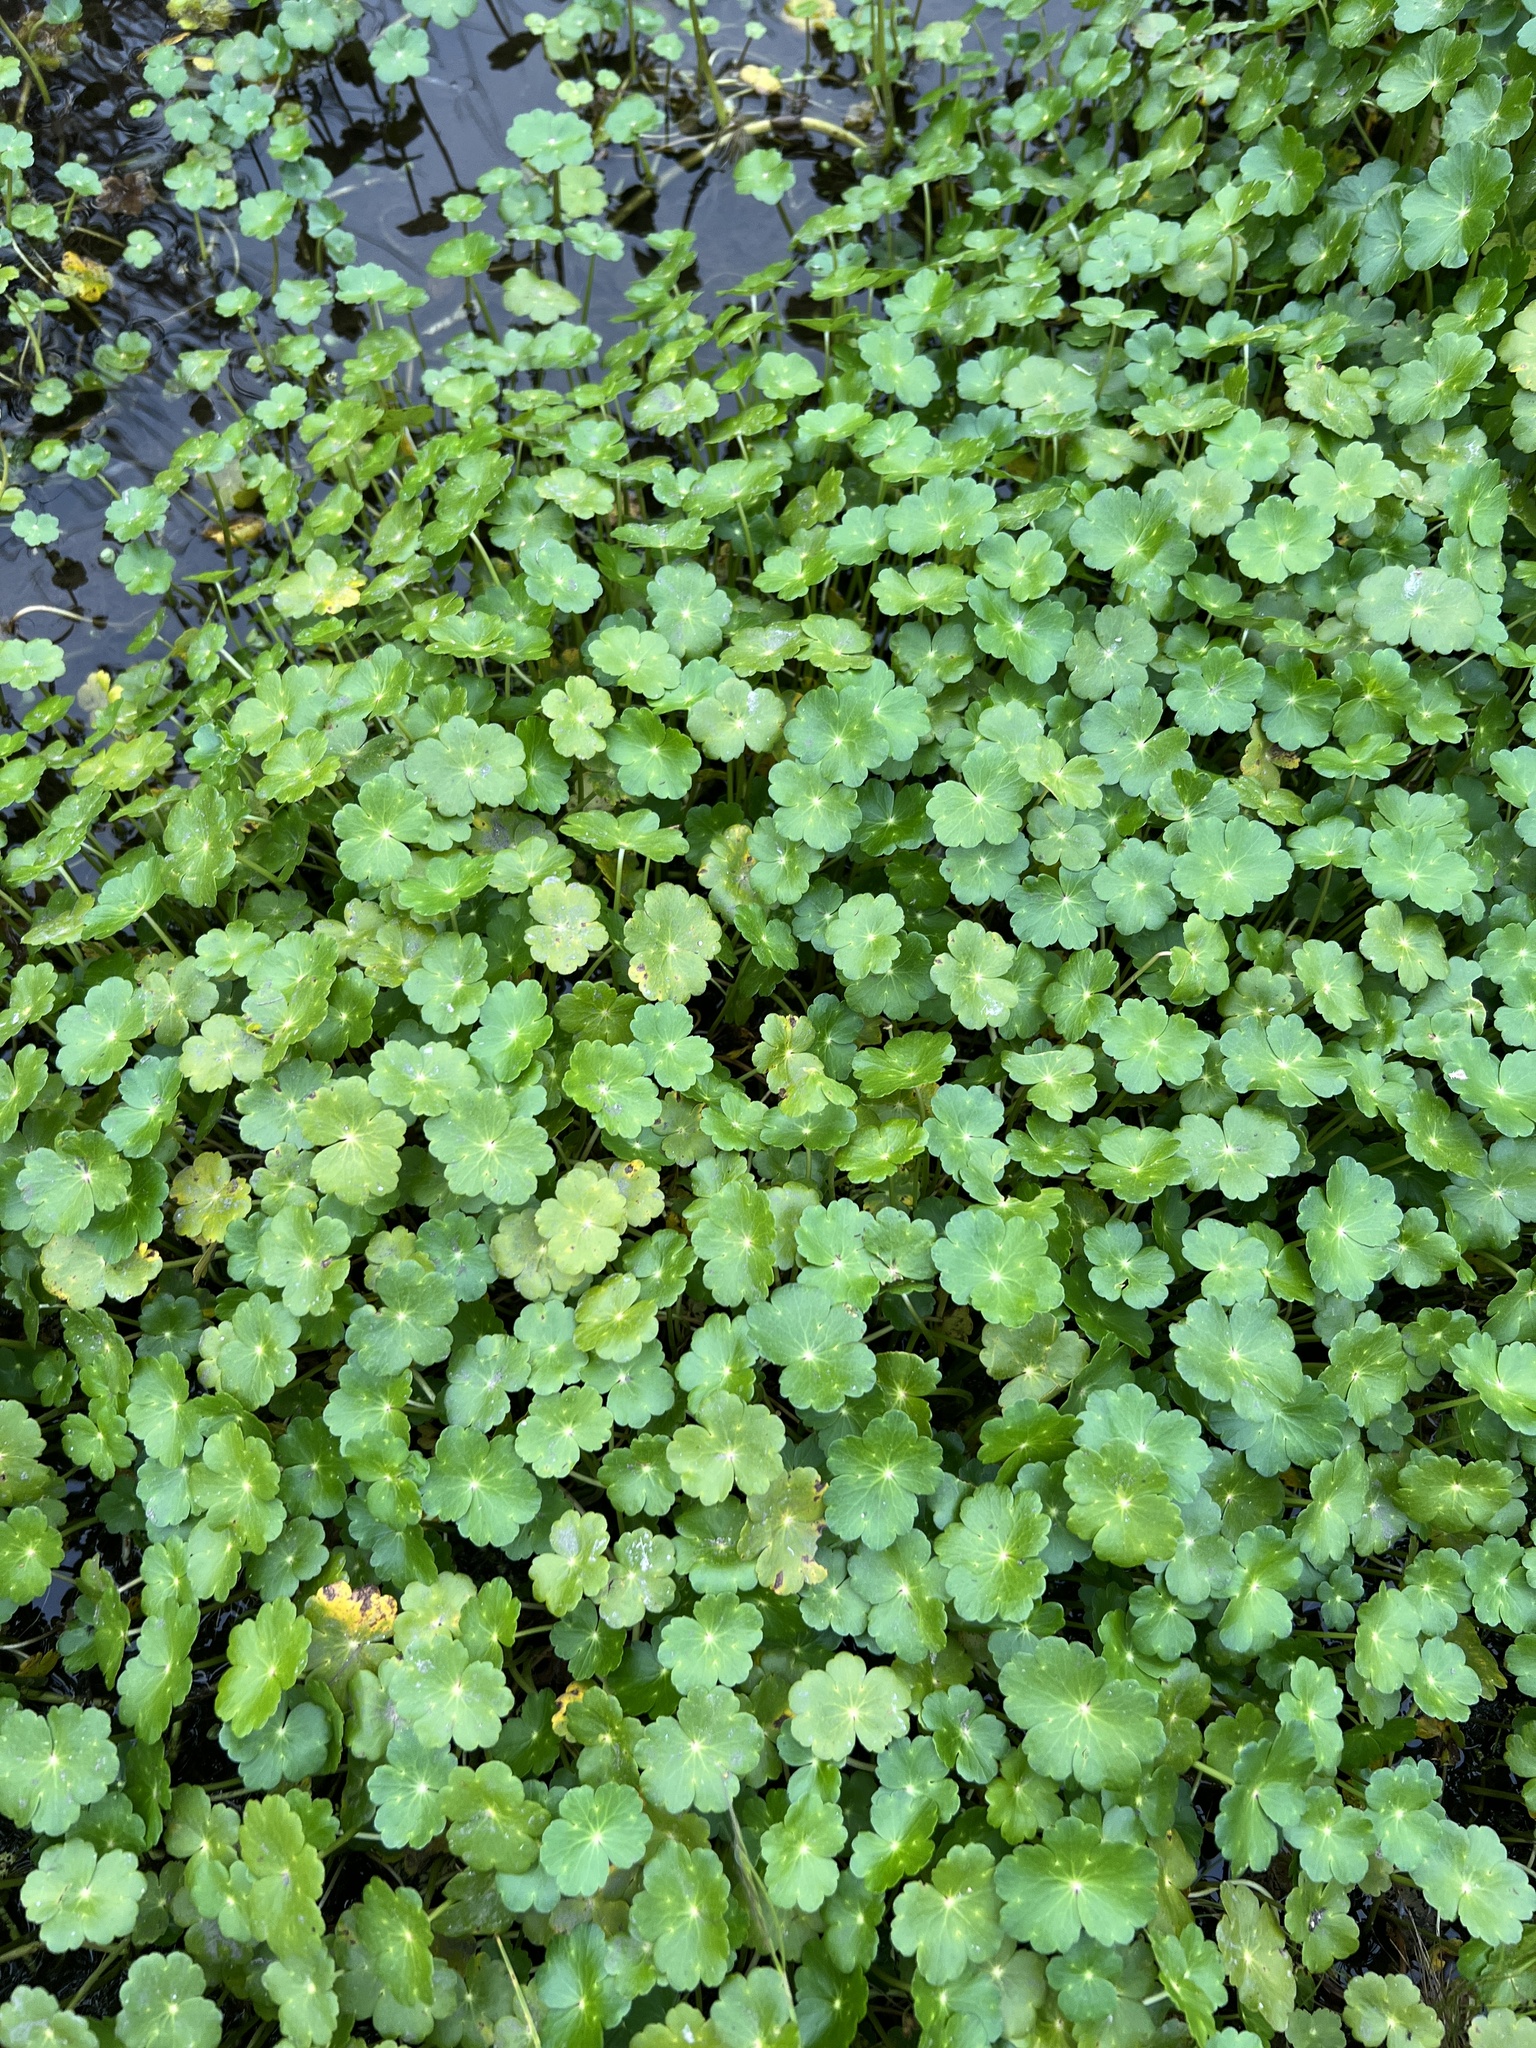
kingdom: Plantae
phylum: Tracheophyta
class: Magnoliopsida
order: Apiales
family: Araliaceae
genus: Hydrocotyle
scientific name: Hydrocotyle ranunculoides
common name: Floating pennywort
